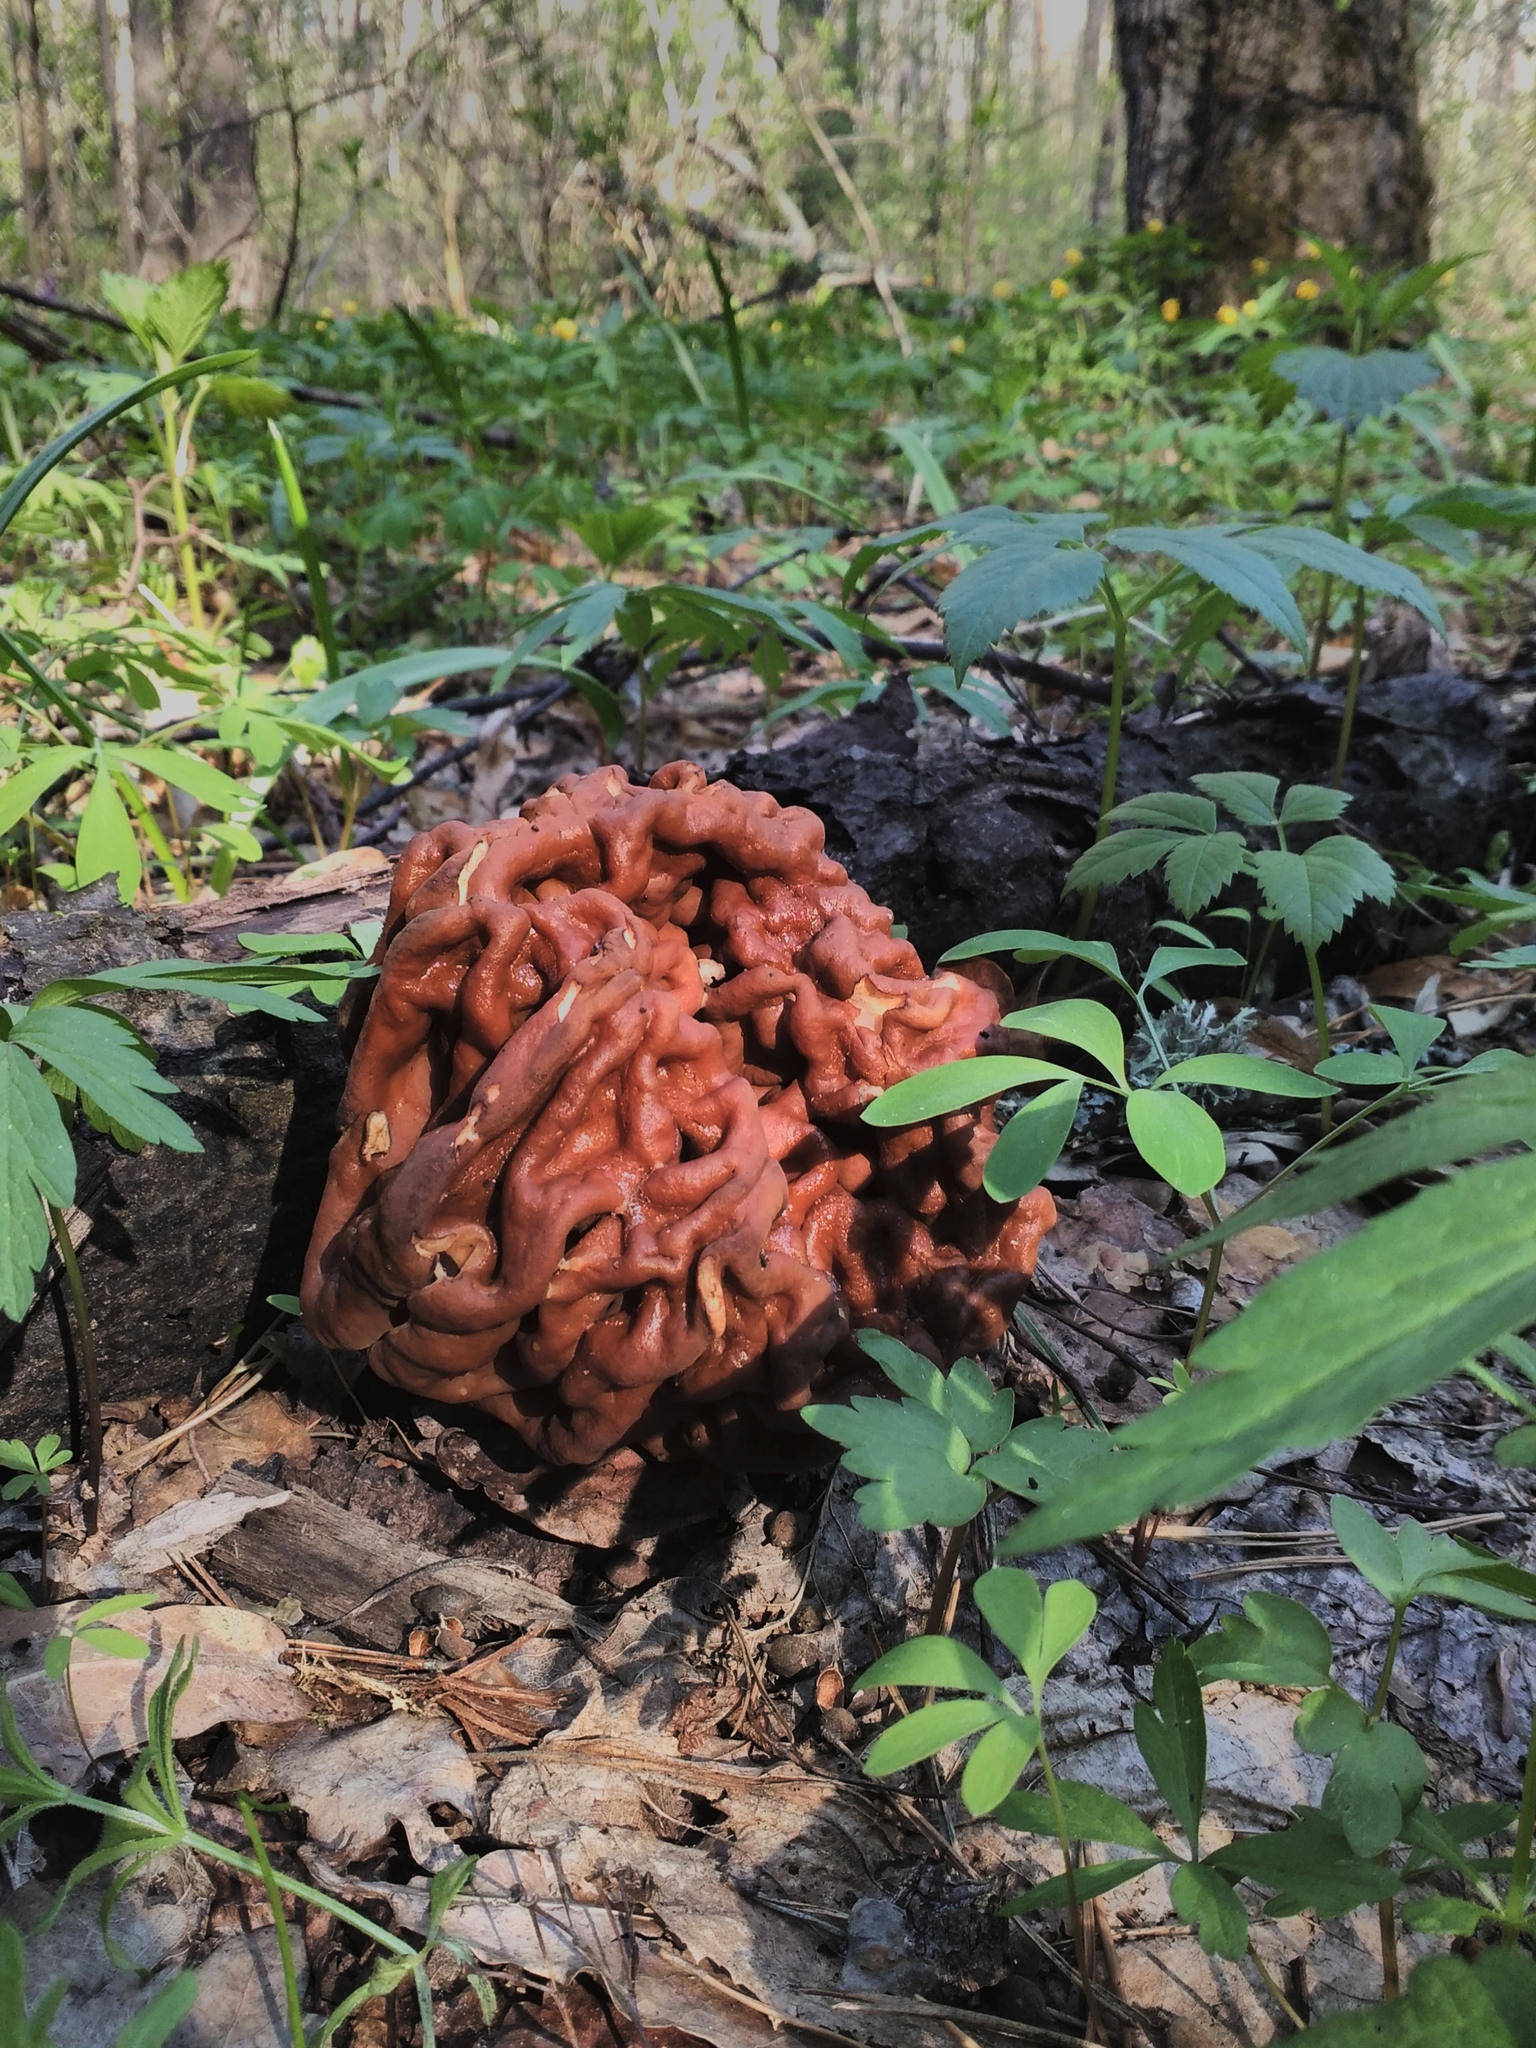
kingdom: Fungi
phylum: Ascomycota
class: Pezizomycetes
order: Pezizales
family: Discinaceae
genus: Gyromitra
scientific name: Gyromitra esculenta
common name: False morel
